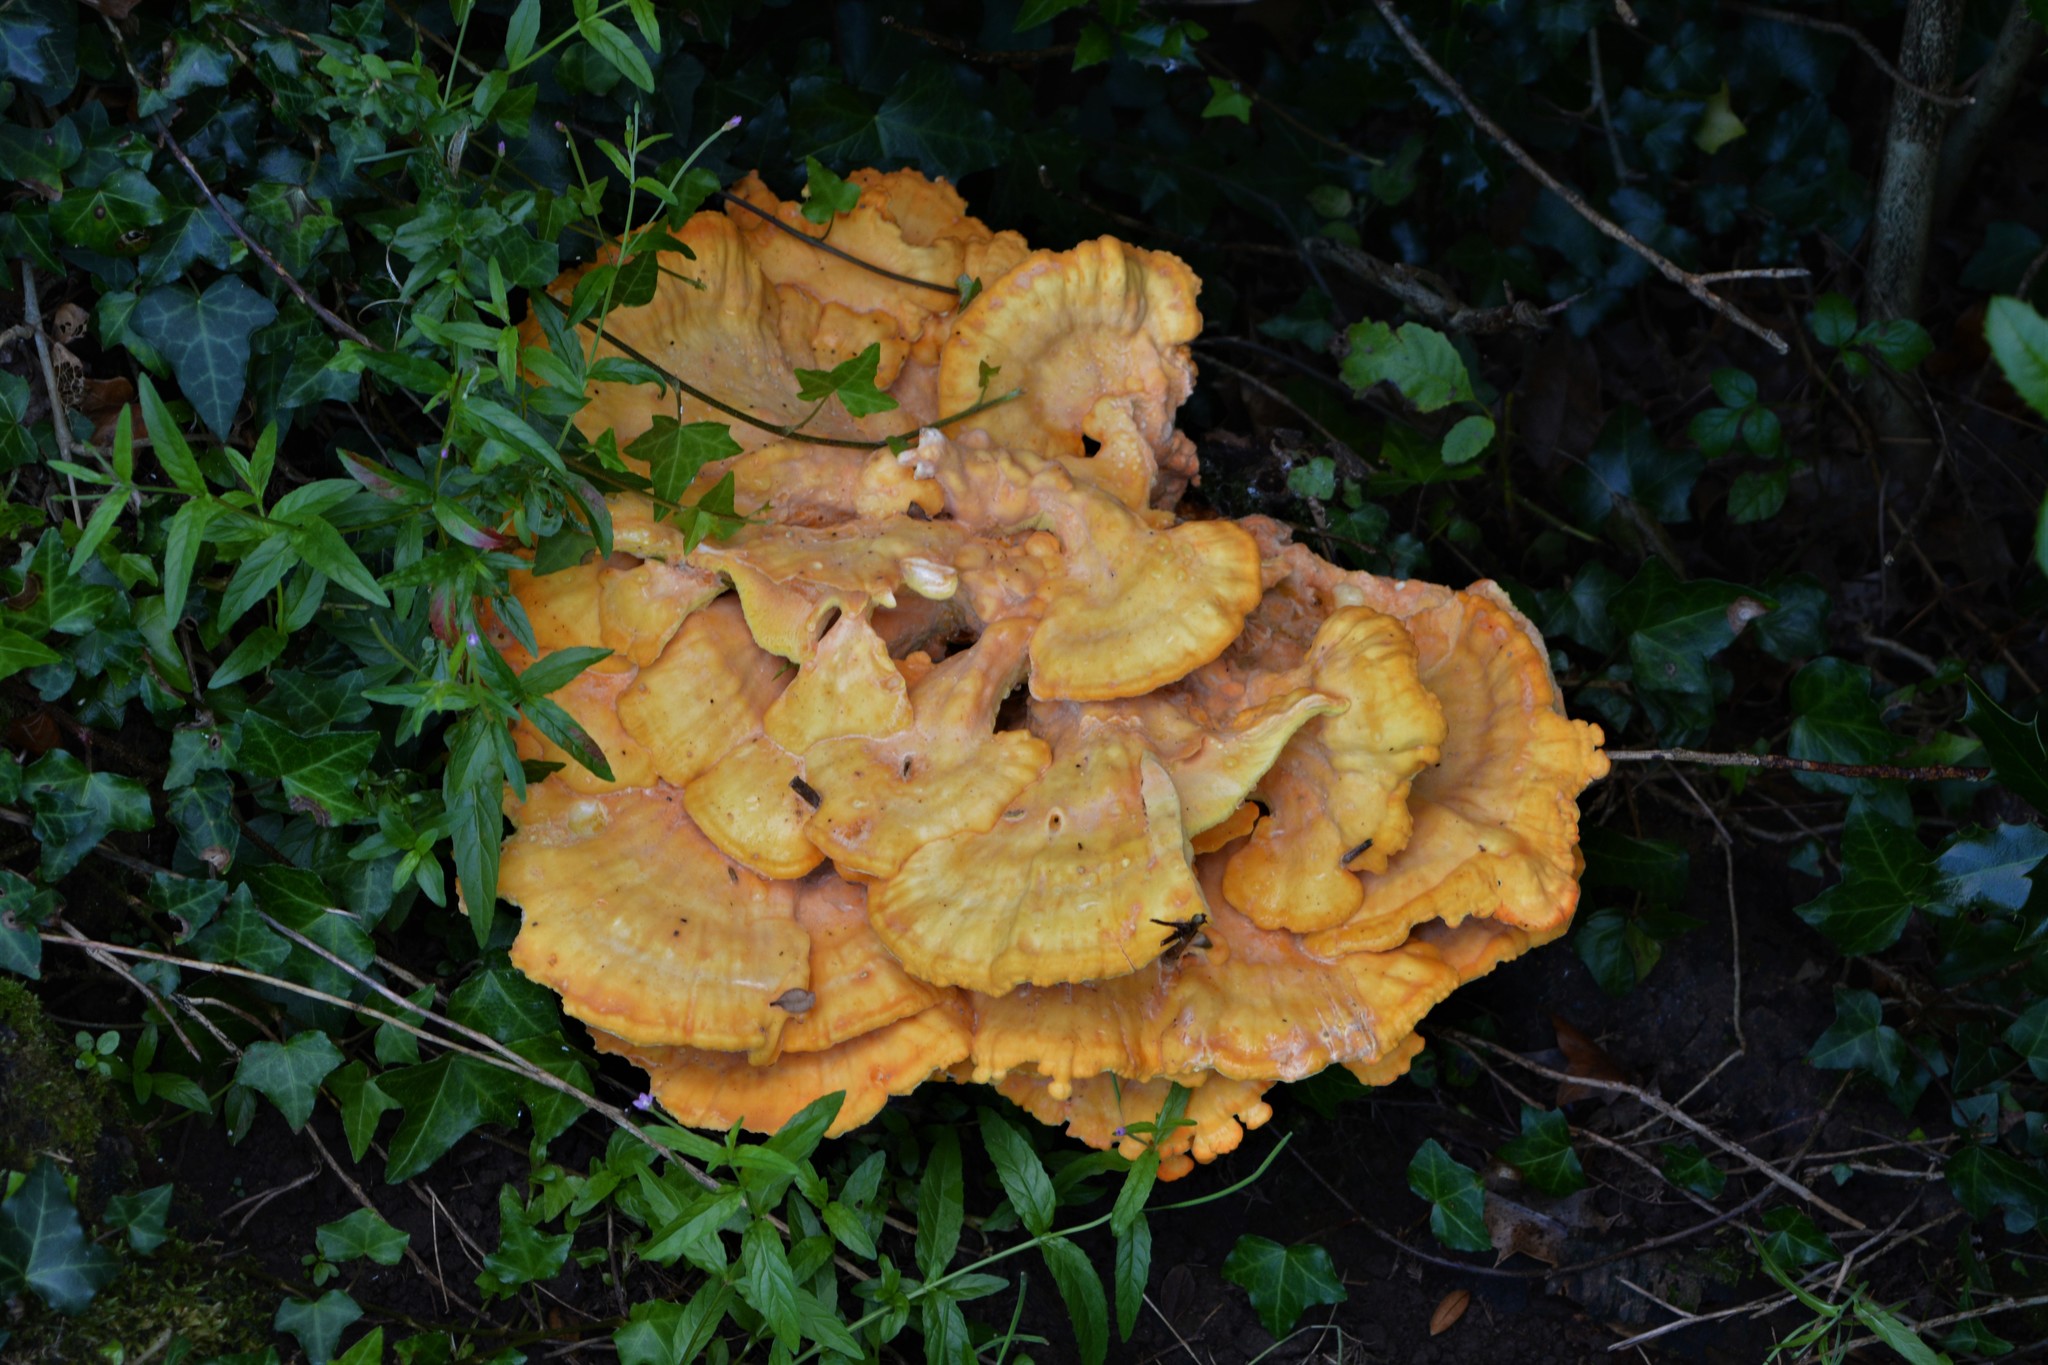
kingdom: Fungi
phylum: Basidiomycota
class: Agaricomycetes
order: Polyporales
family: Laetiporaceae
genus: Laetiporus
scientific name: Laetiporus sulphureus
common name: Chicken of the woods
